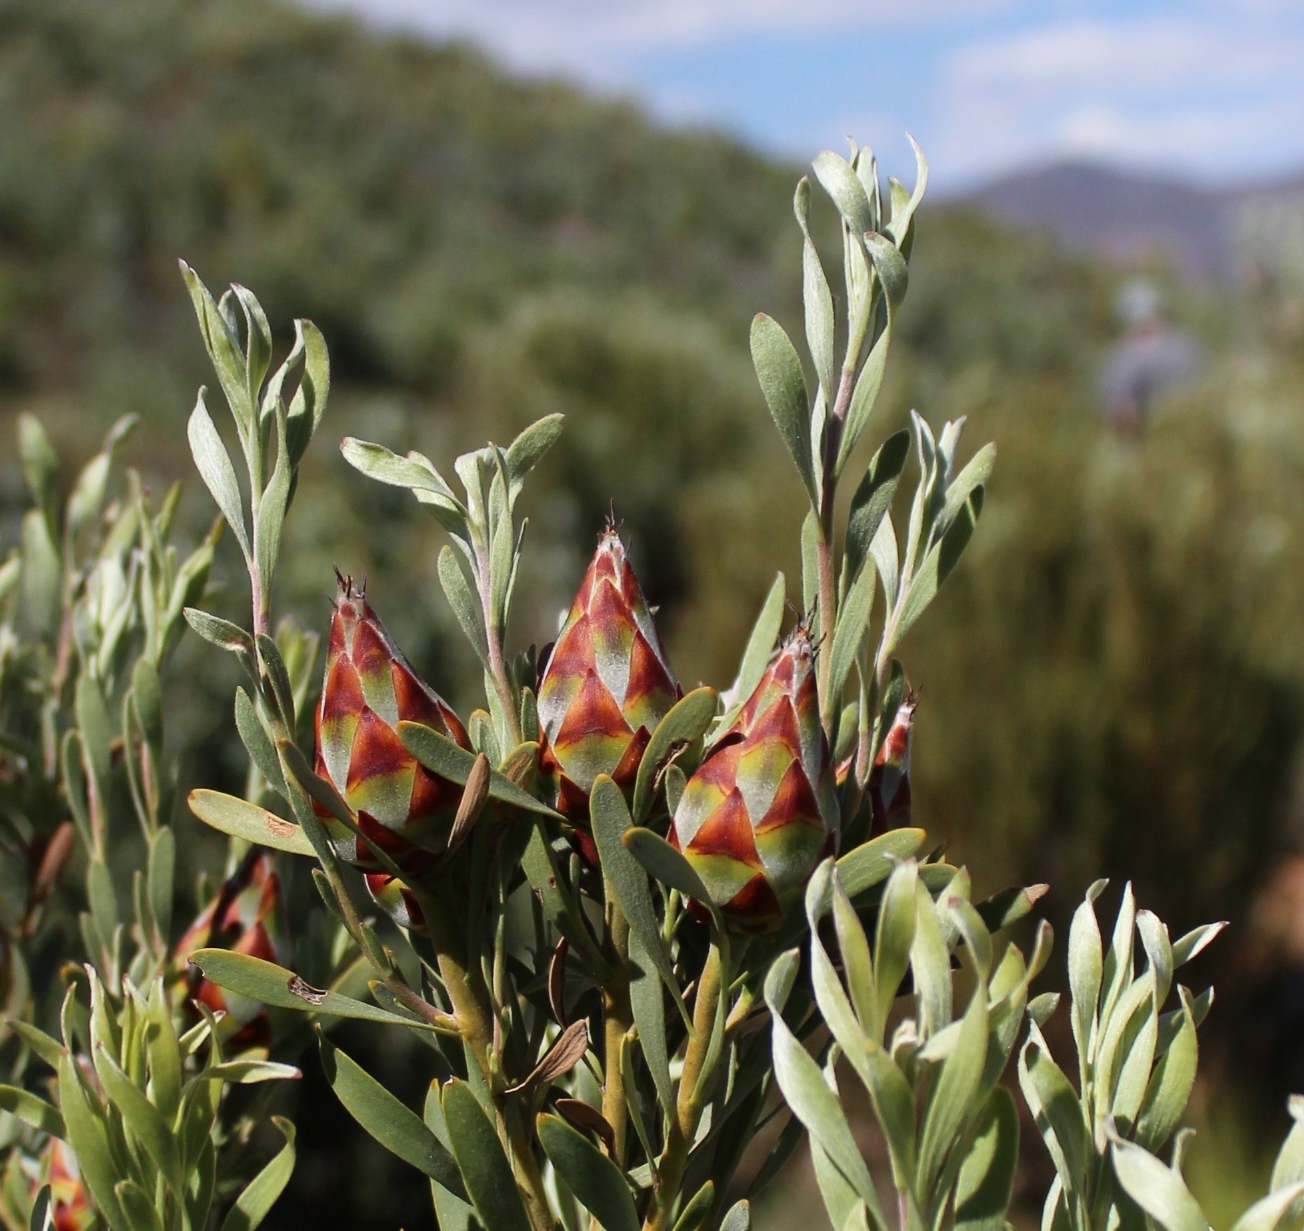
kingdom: Plantae
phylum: Tracheophyta
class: Magnoliopsida
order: Proteales
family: Proteaceae
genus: Leucadendron
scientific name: Leucadendron rubrum
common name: Spinning top
